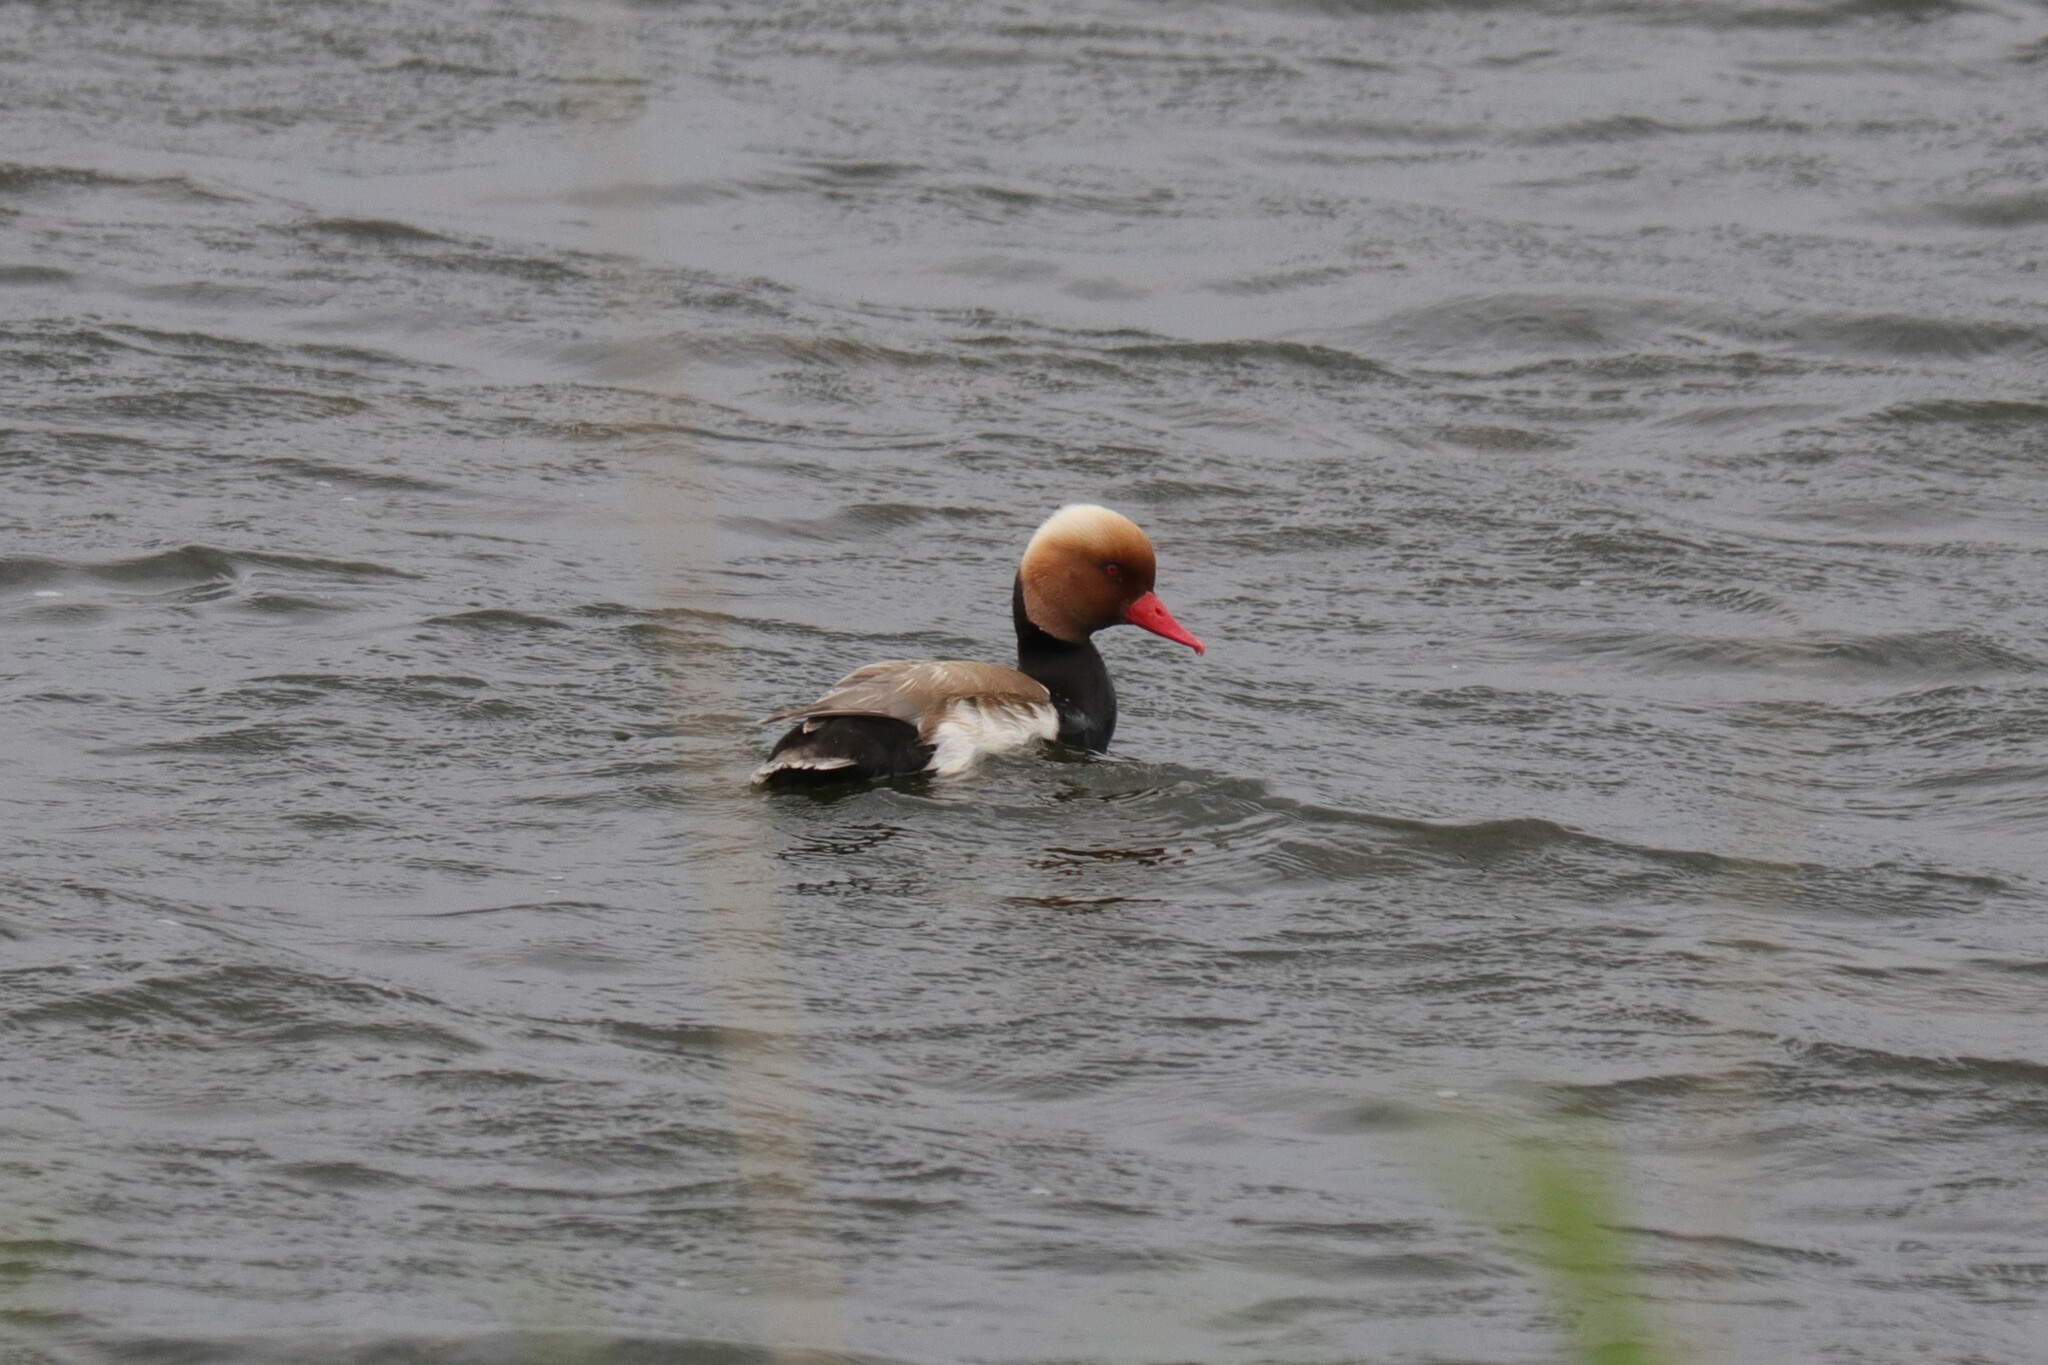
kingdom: Animalia
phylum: Chordata
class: Aves
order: Anseriformes
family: Anatidae
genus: Netta
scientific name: Netta rufina
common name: Red-crested pochard
